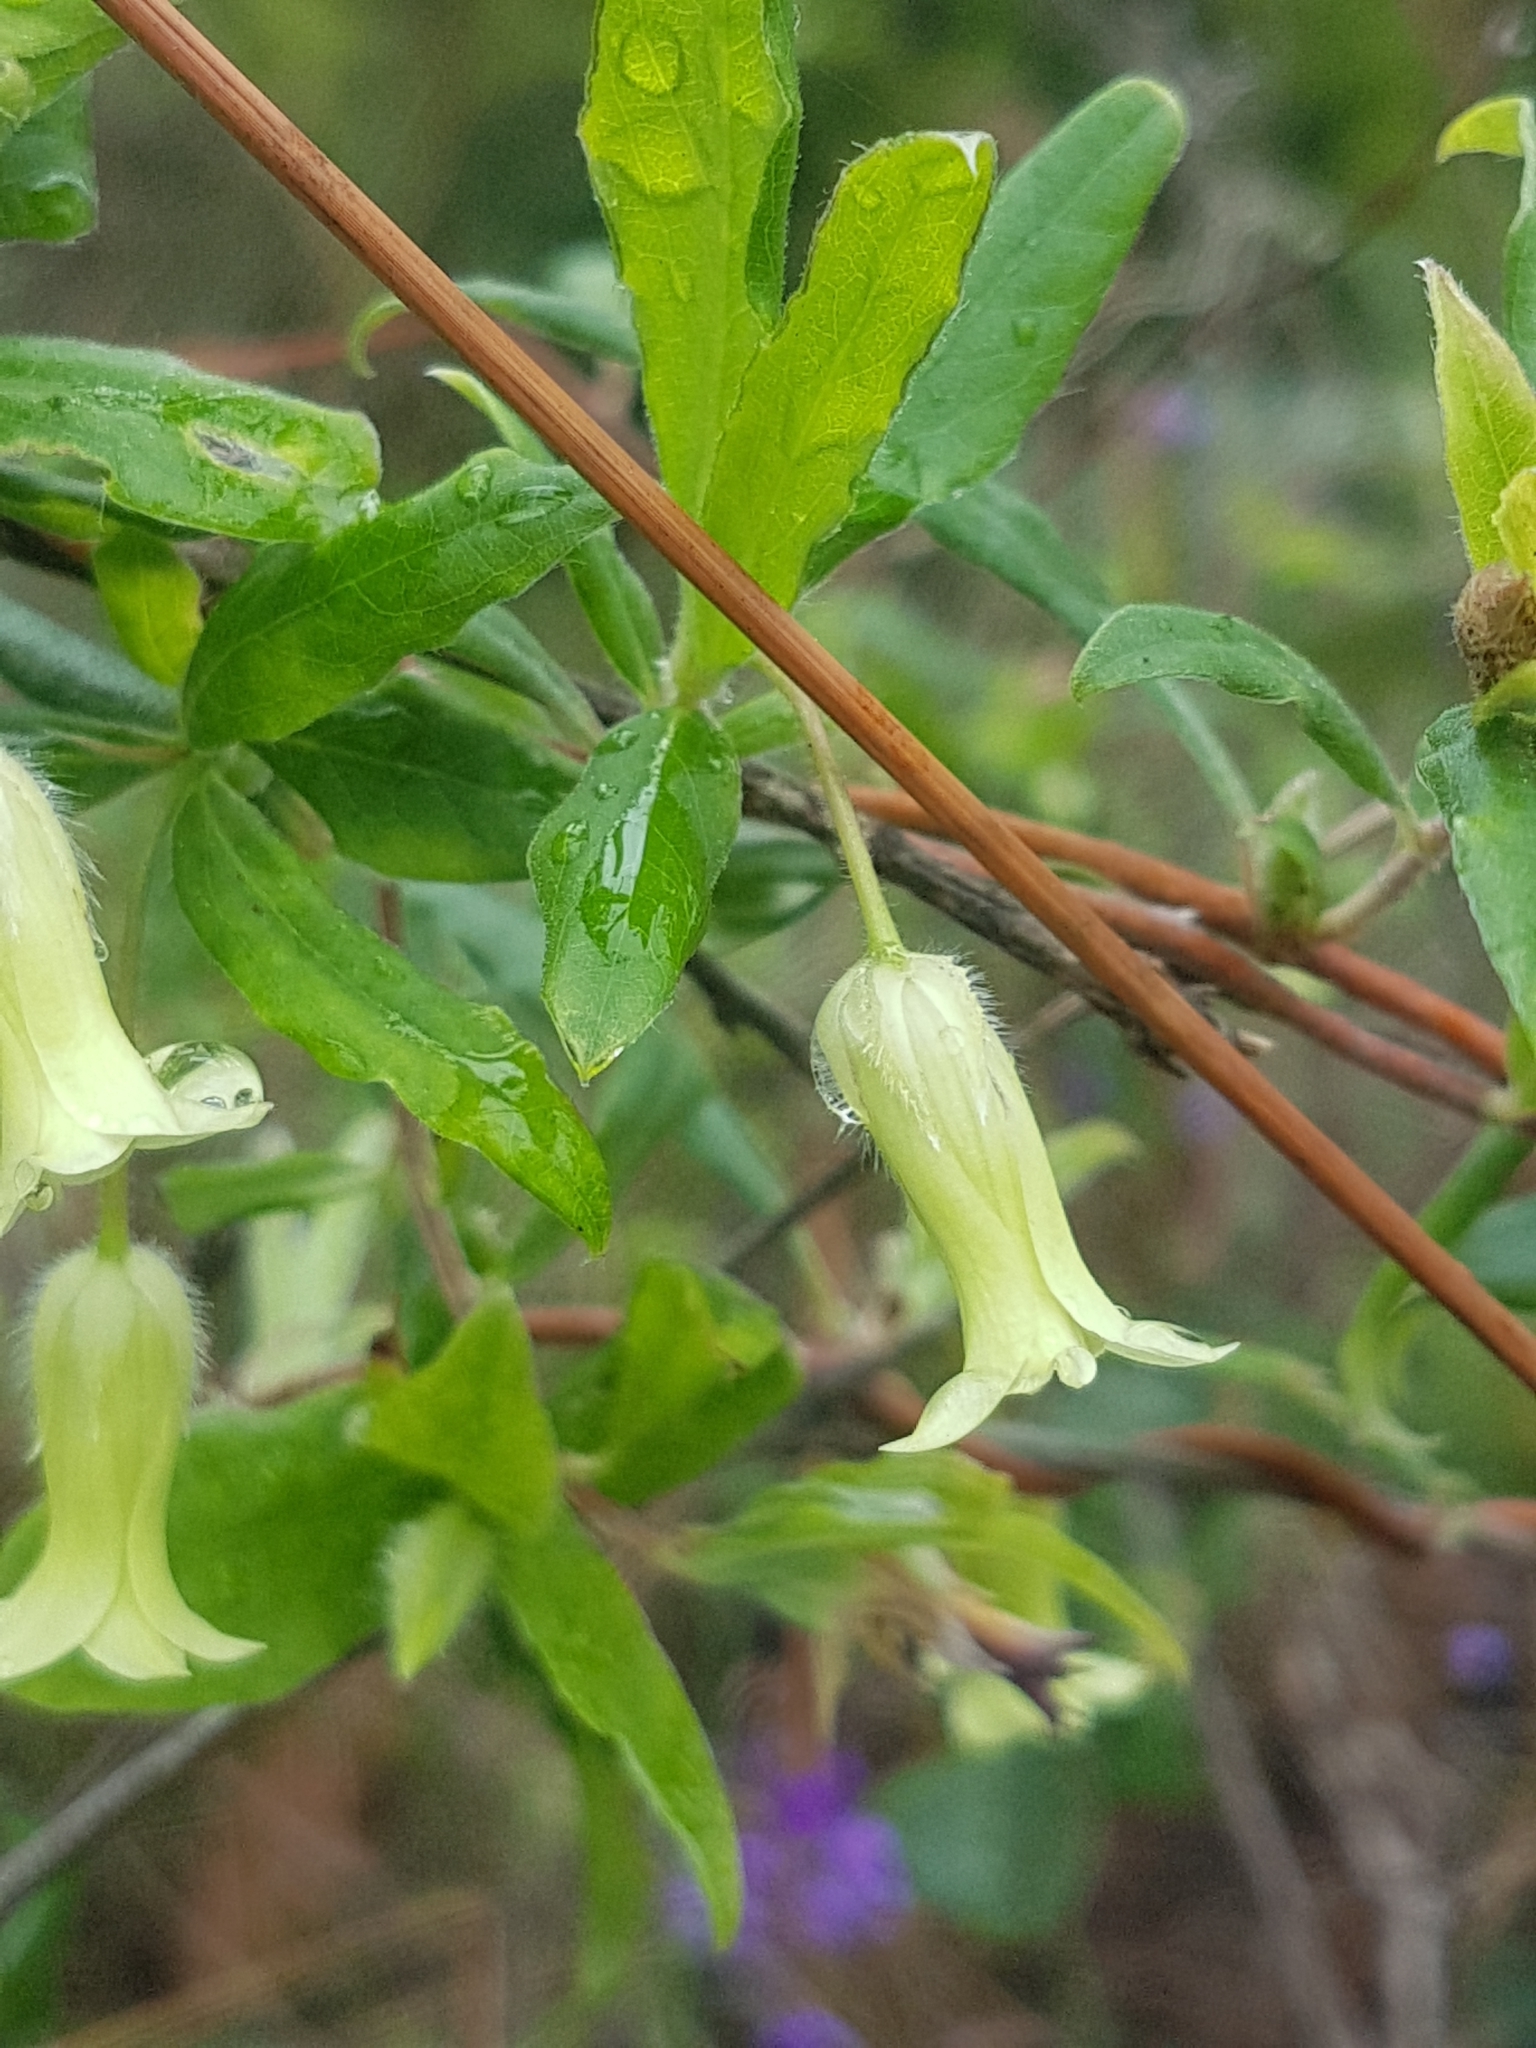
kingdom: Plantae
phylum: Tracheophyta
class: Magnoliopsida
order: Apiales
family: Pittosporaceae
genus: Billardiera
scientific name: Billardiera scandens
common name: Apple-berry
